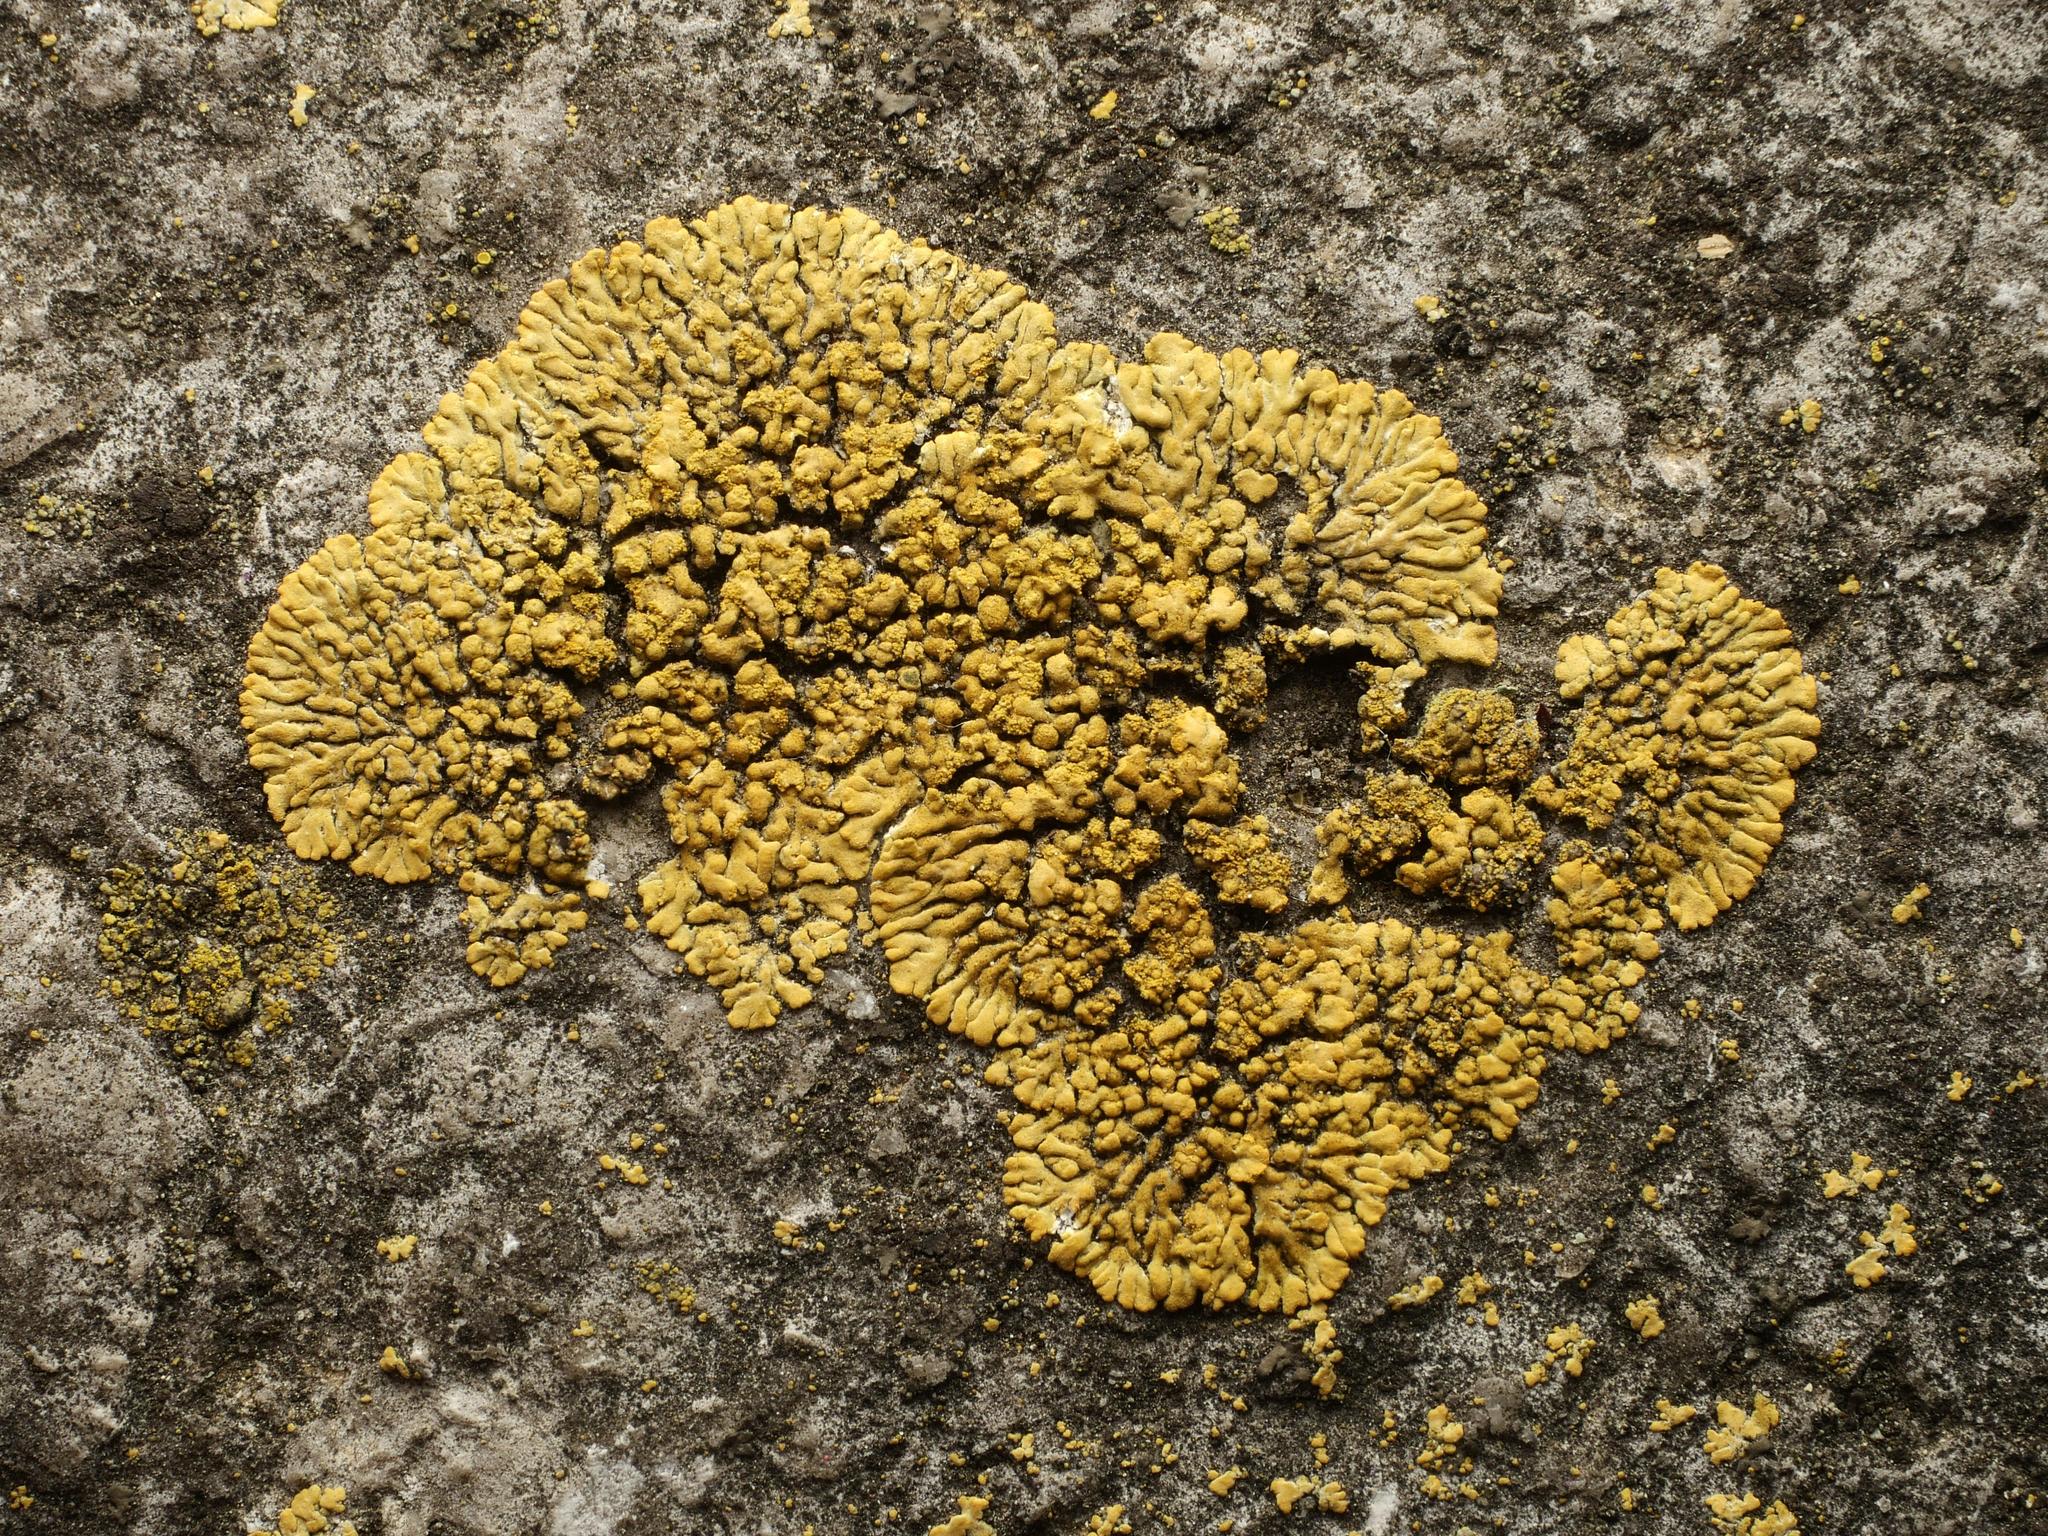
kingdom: Fungi
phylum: Ascomycota
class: Lecanoromycetes
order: Teloschistales
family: Teloschistaceae
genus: Calogaya
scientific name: Calogaya decipiens
